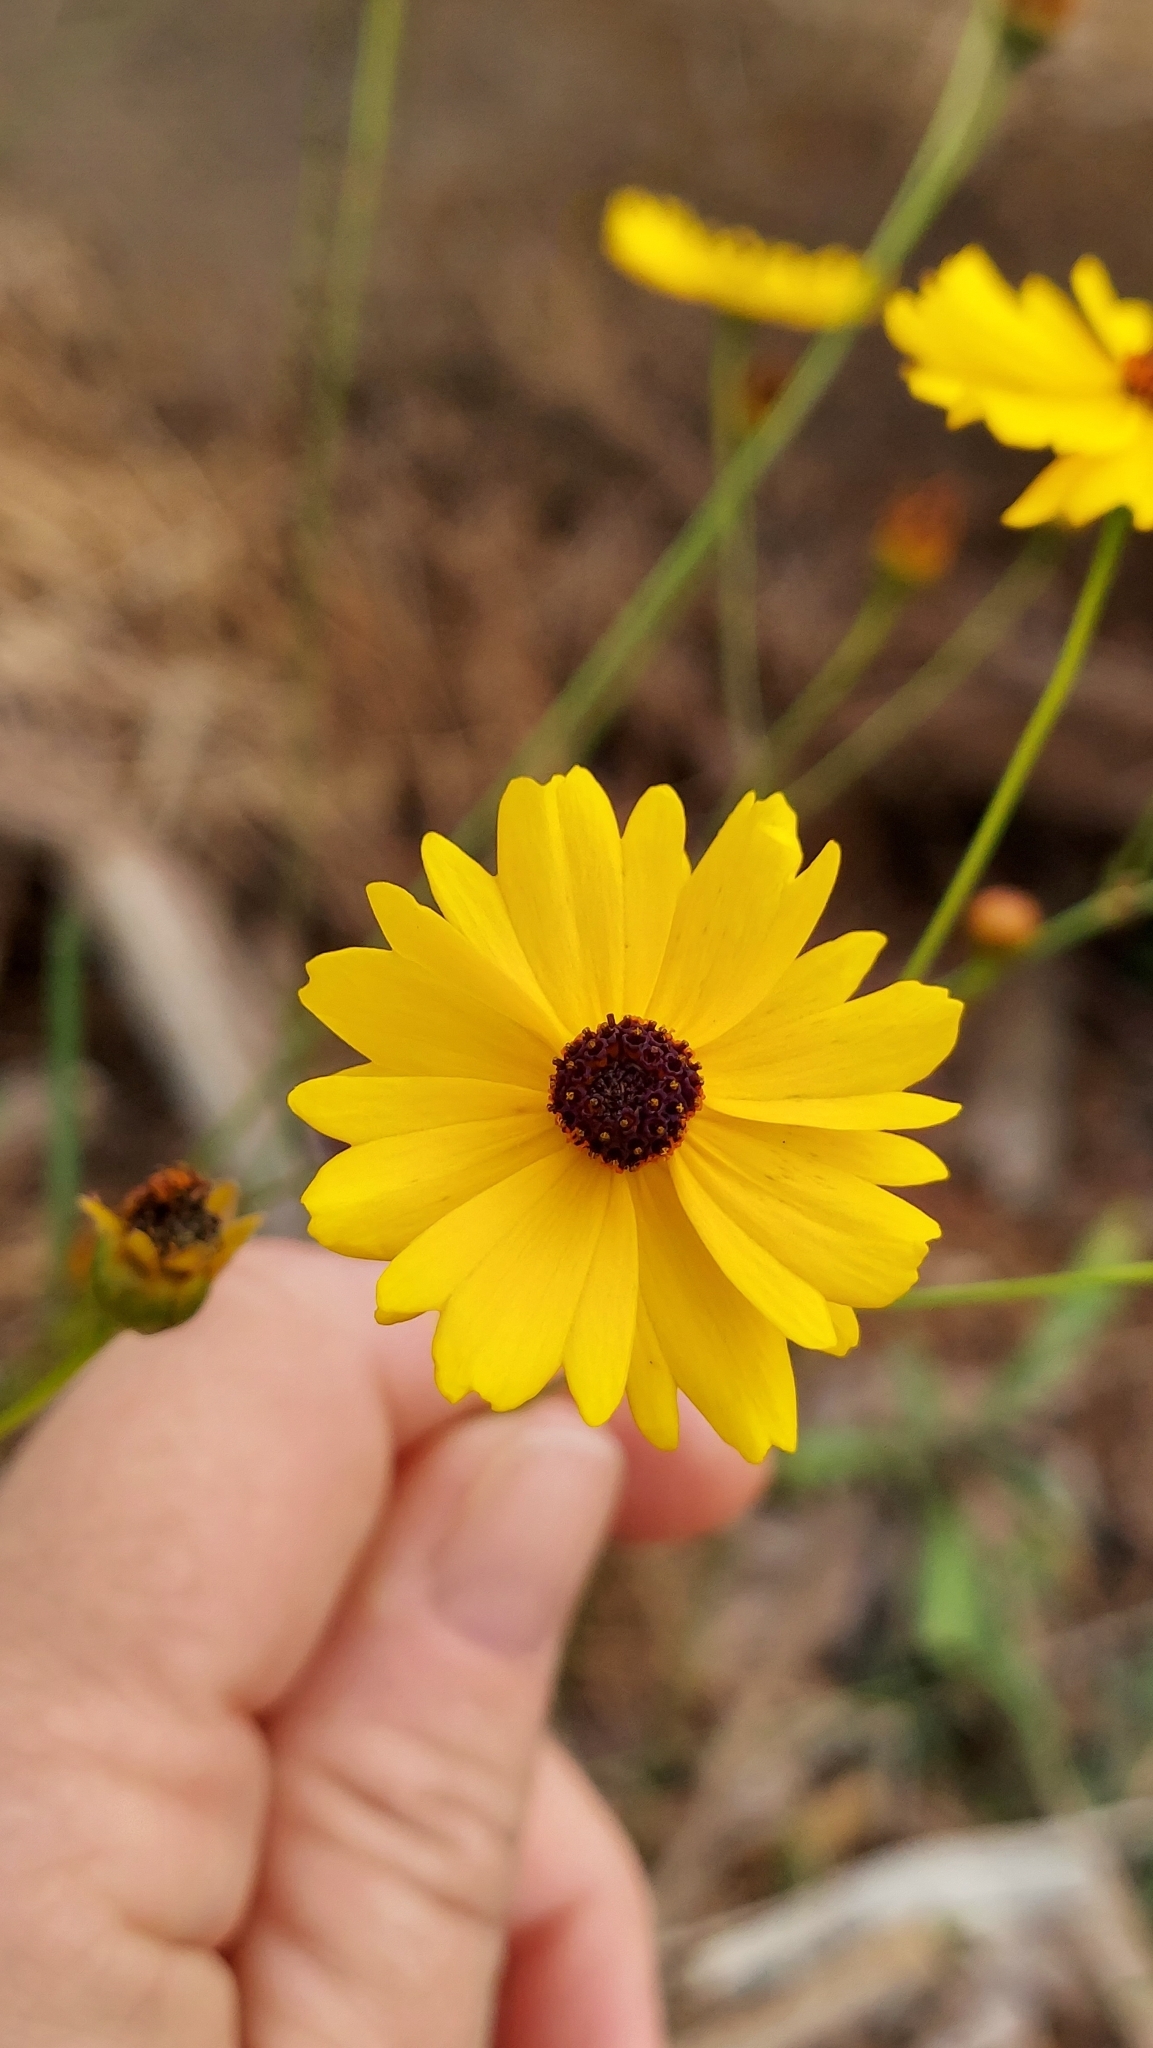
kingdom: Plantae
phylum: Tracheophyta
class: Magnoliopsida
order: Asterales
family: Asteraceae
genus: Coreopsis
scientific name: Coreopsis leavenworthii
